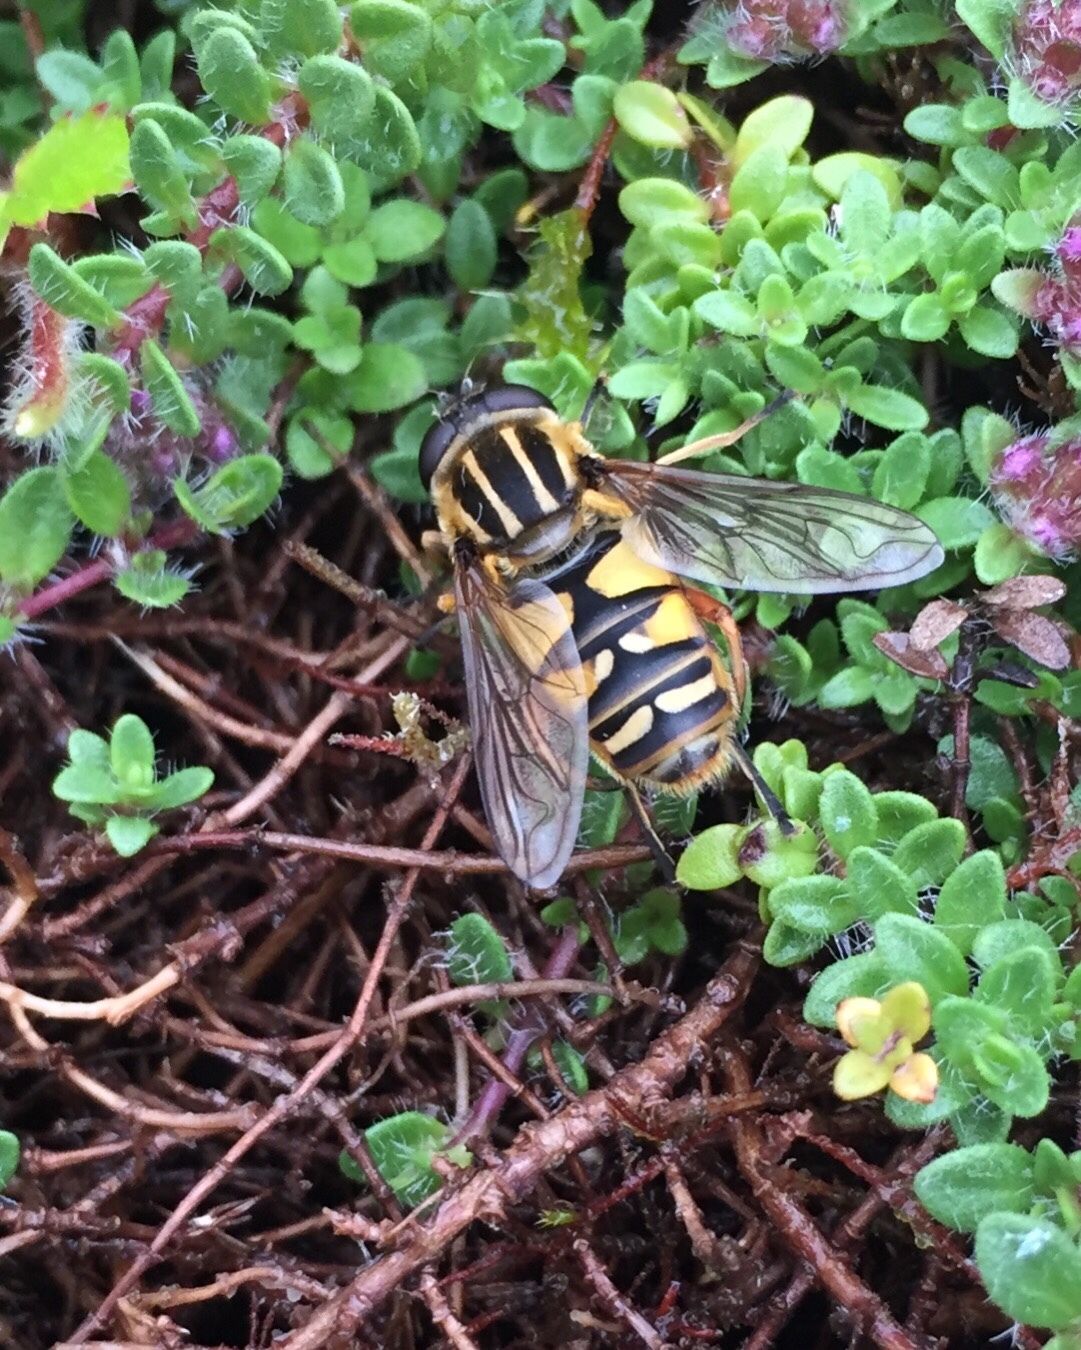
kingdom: Animalia
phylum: Arthropoda
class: Insecta
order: Diptera
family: Syrphidae
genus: Helophilus
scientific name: Helophilus pendulus
